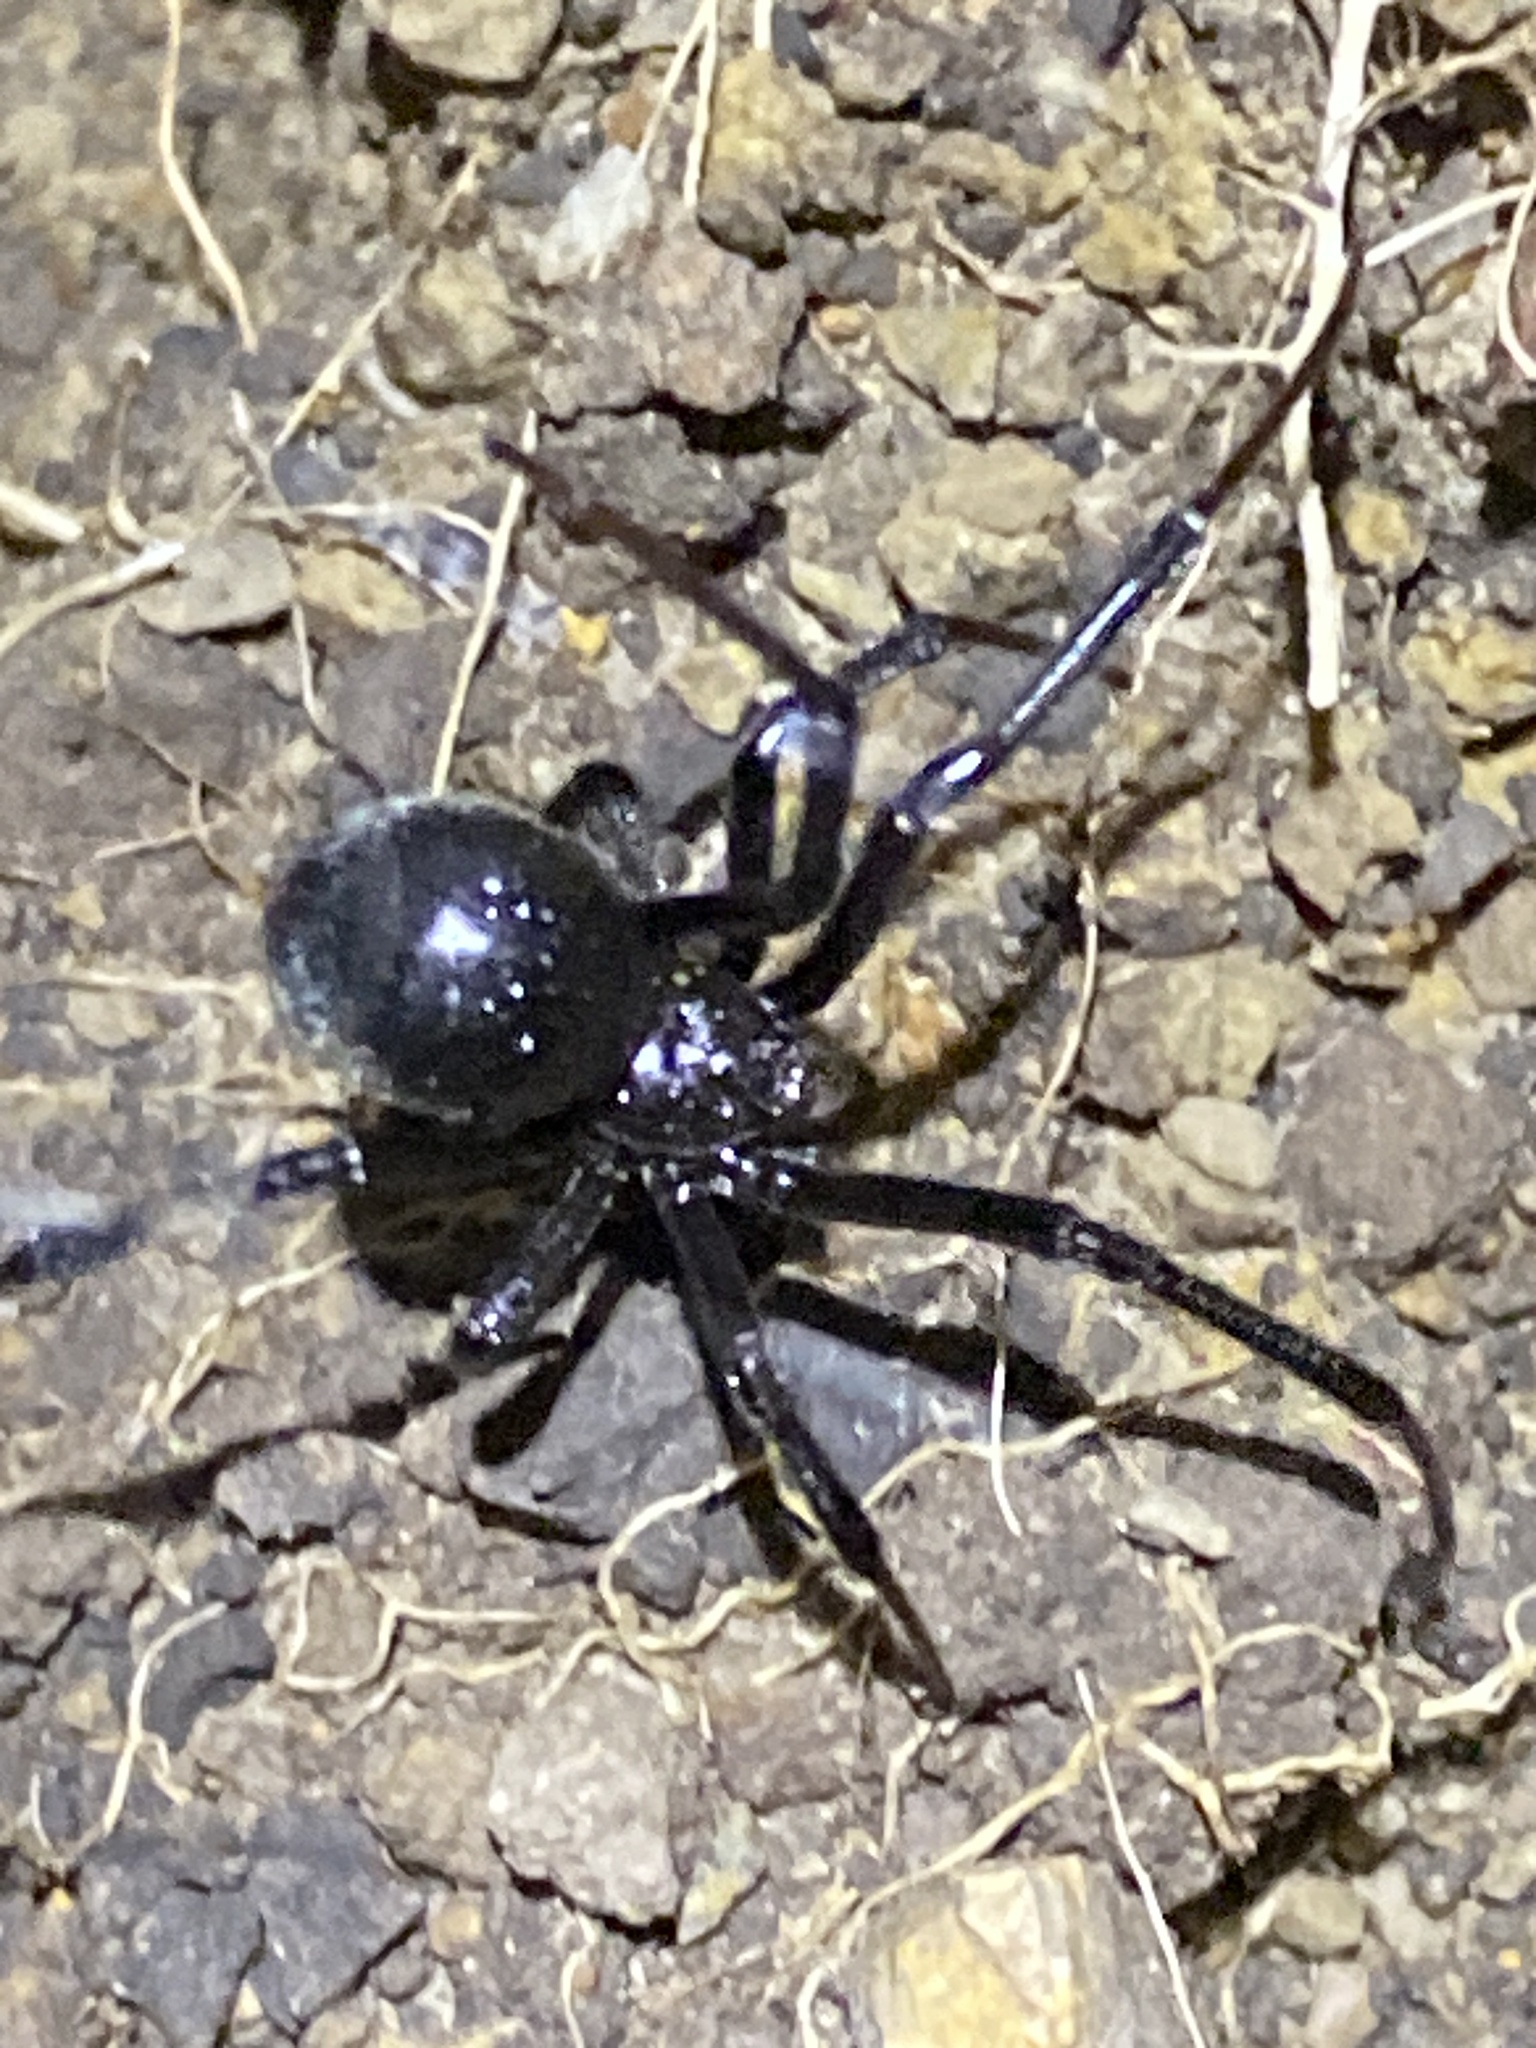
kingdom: Animalia
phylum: Arthropoda
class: Arachnida
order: Araneae
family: Theridiidae
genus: Latrodectus
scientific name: Latrodectus hesperus
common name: Western black widow
